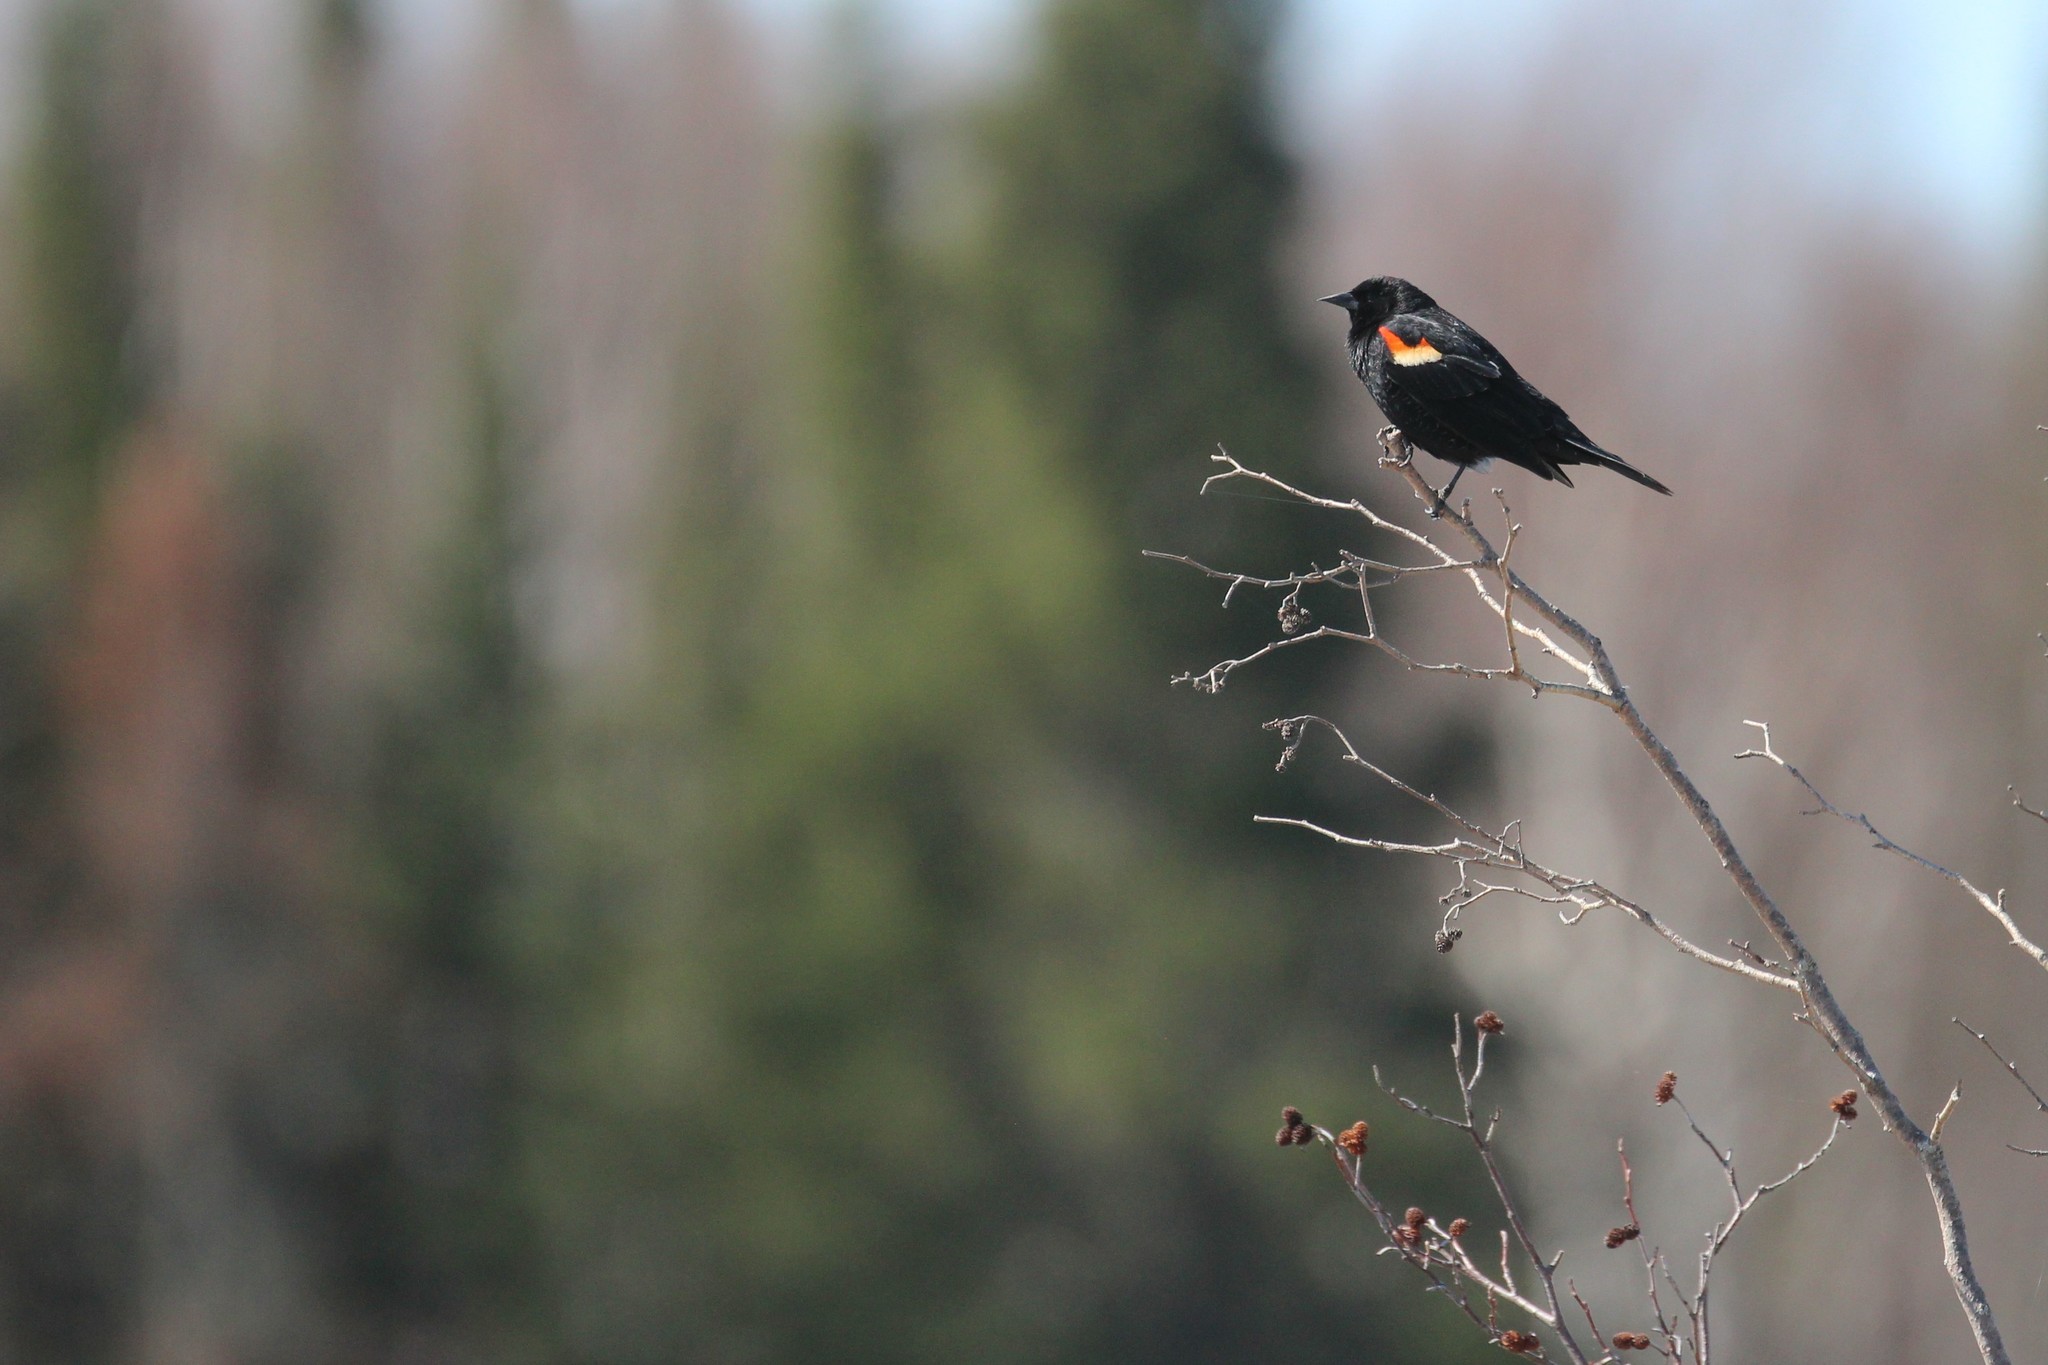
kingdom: Animalia
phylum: Chordata
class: Aves
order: Passeriformes
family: Icteridae
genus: Agelaius
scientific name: Agelaius phoeniceus
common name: Red-winged blackbird
